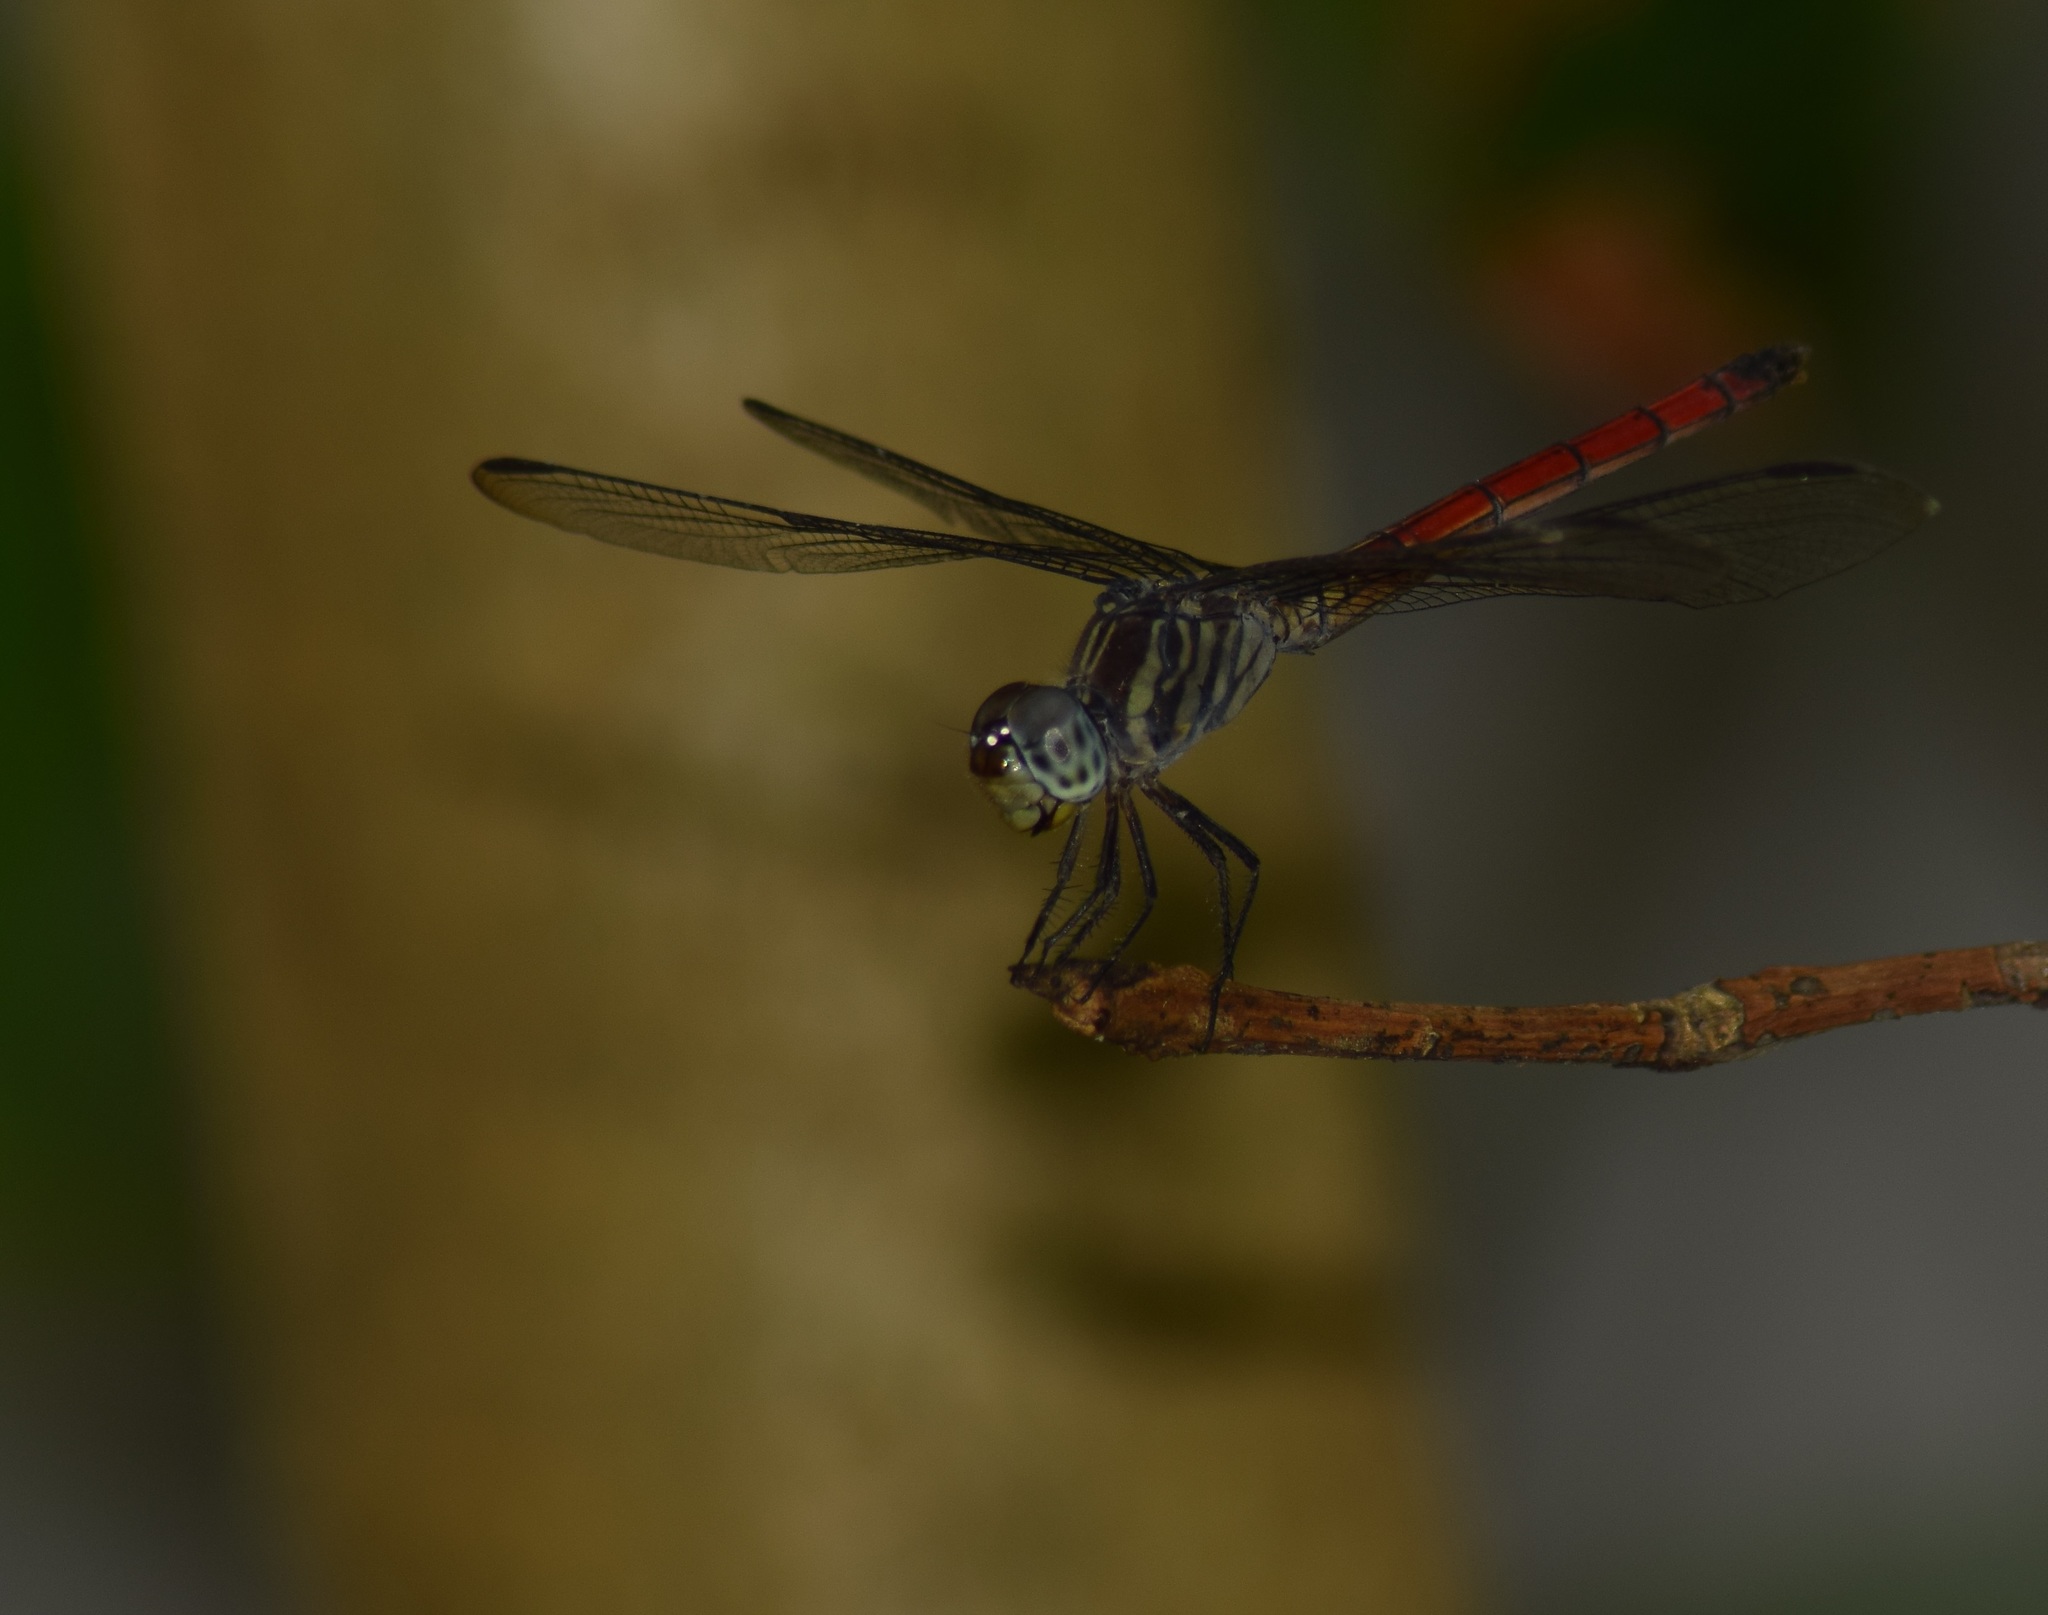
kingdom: Animalia
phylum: Arthropoda
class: Insecta
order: Odonata
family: Libellulidae
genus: Lathrecista
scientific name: Lathrecista asiatica
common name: Scarlet grenadier
